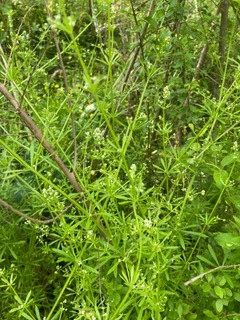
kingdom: Plantae
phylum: Tracheophyta
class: Magnoliopsida
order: Gentianales
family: Rubiaceae
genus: Galium
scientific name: Galium aparine
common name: Cleavers
